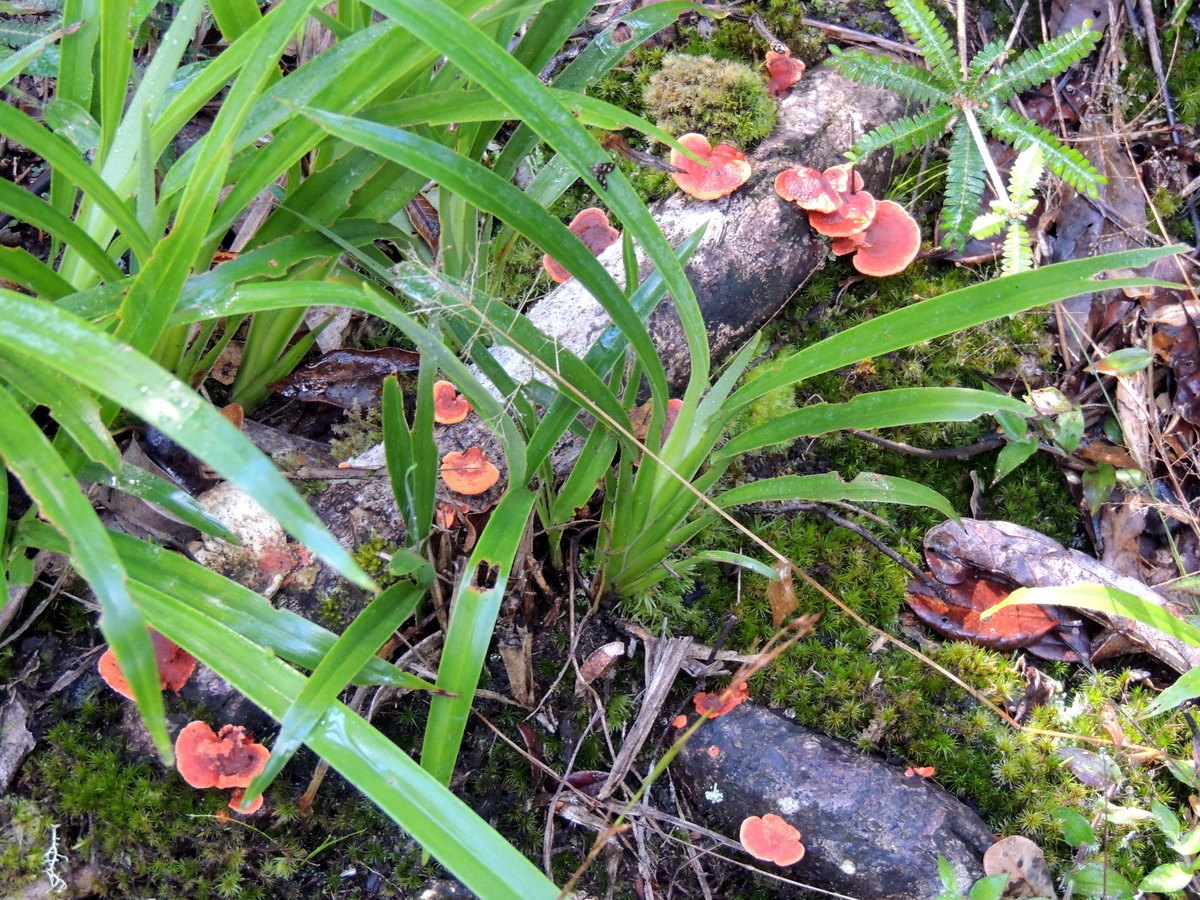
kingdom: Fungi
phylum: Basidiomycota
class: Agaricomycetes
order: Polyporales
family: Polyporaceae
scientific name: Polyporaceae
